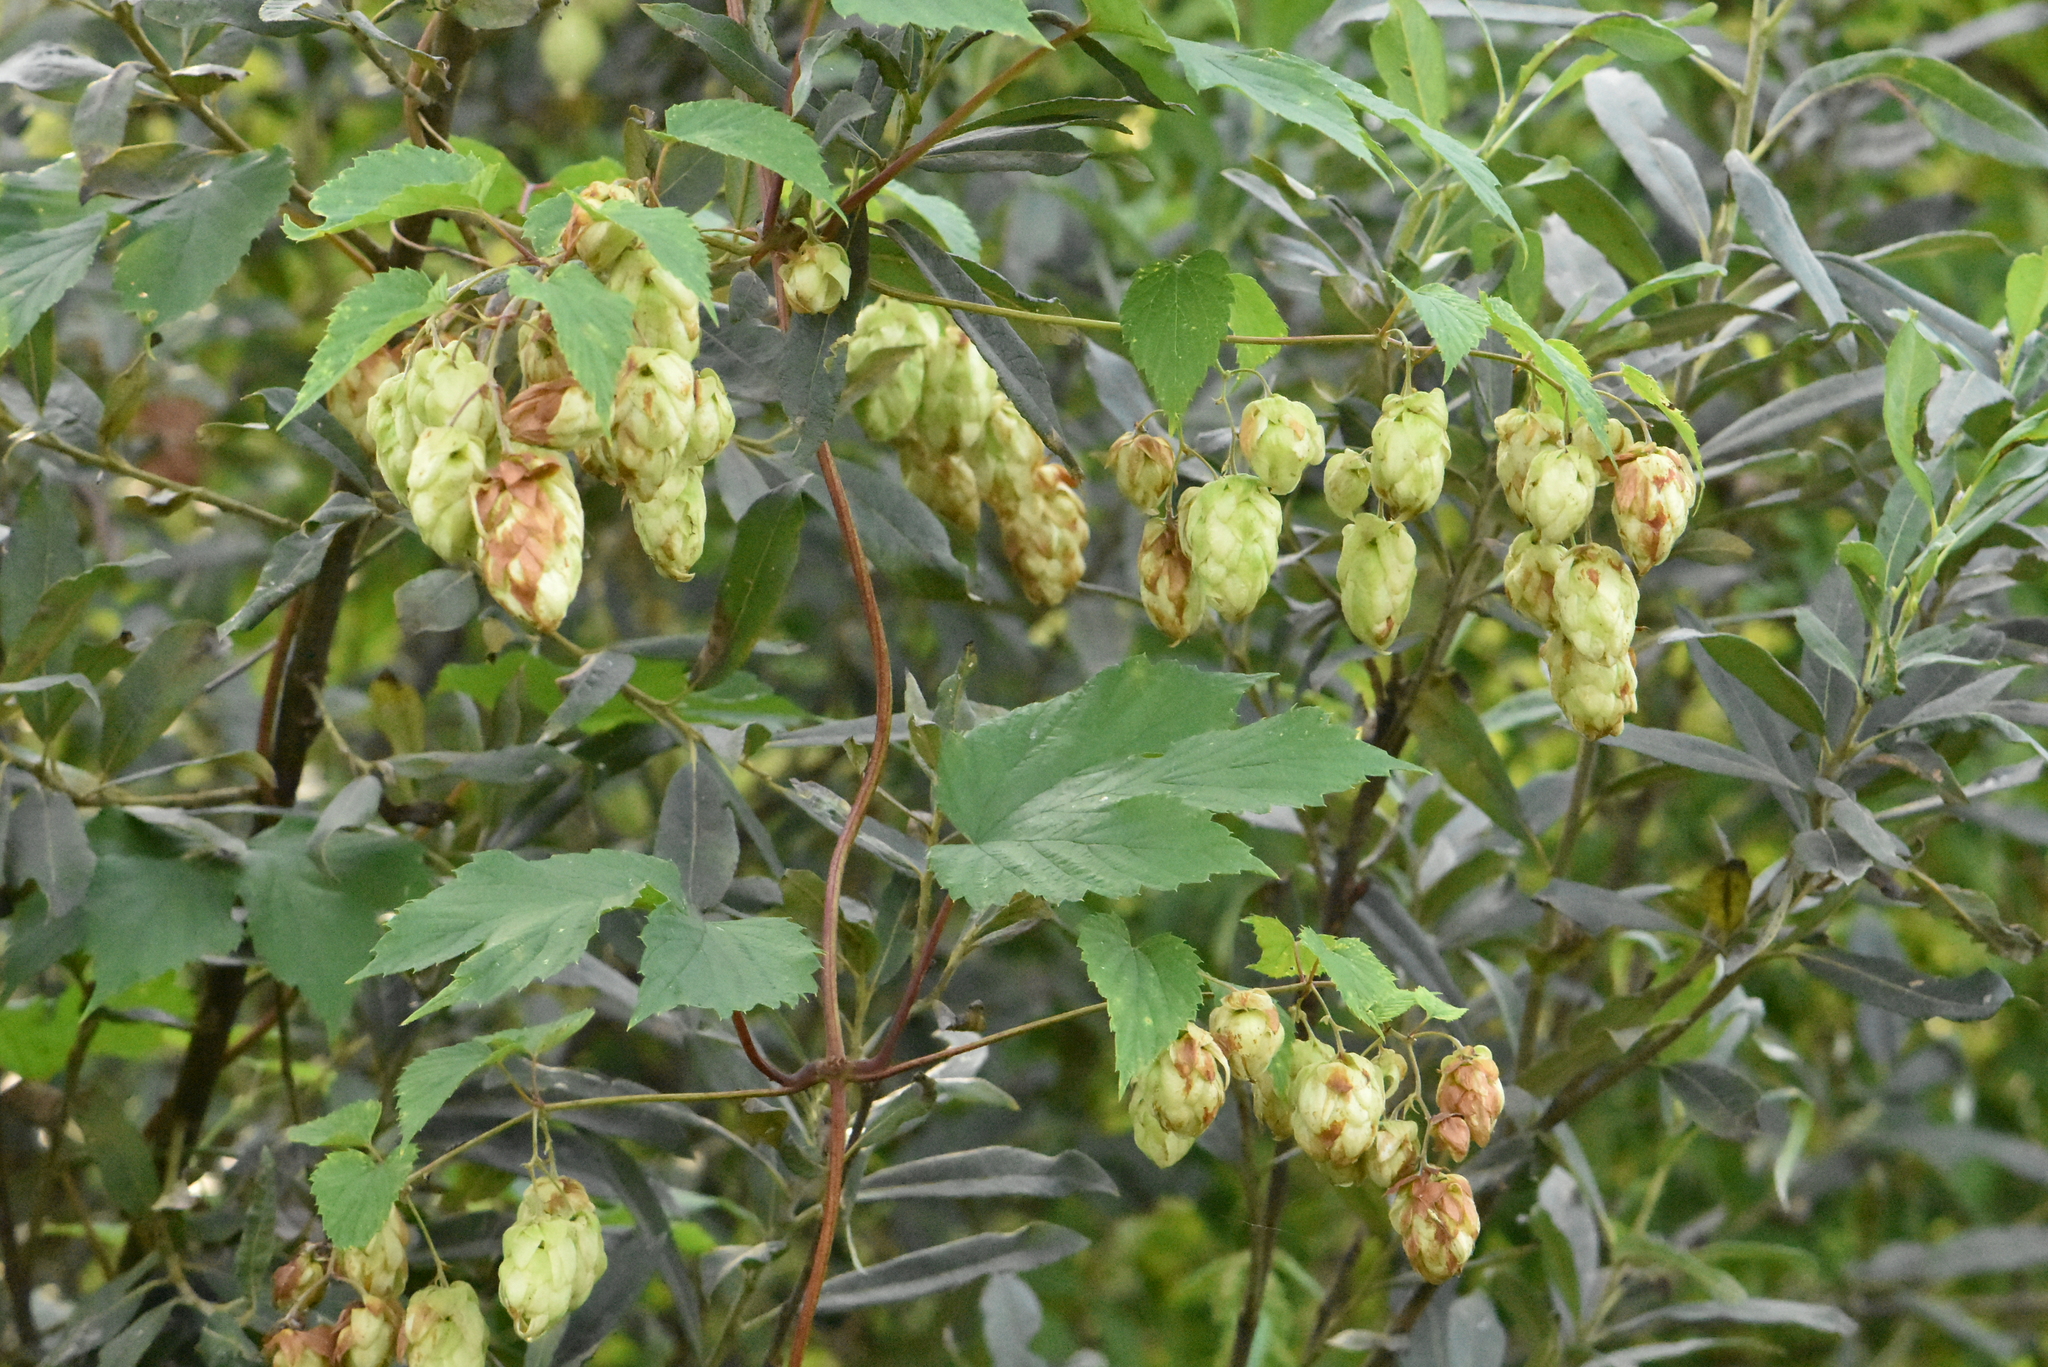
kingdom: Plantae
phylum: Tracheophyta
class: Magnoliopsida
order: Rosales
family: Cannabaceae
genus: Humulus
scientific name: Humulus lupulus
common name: Hop
